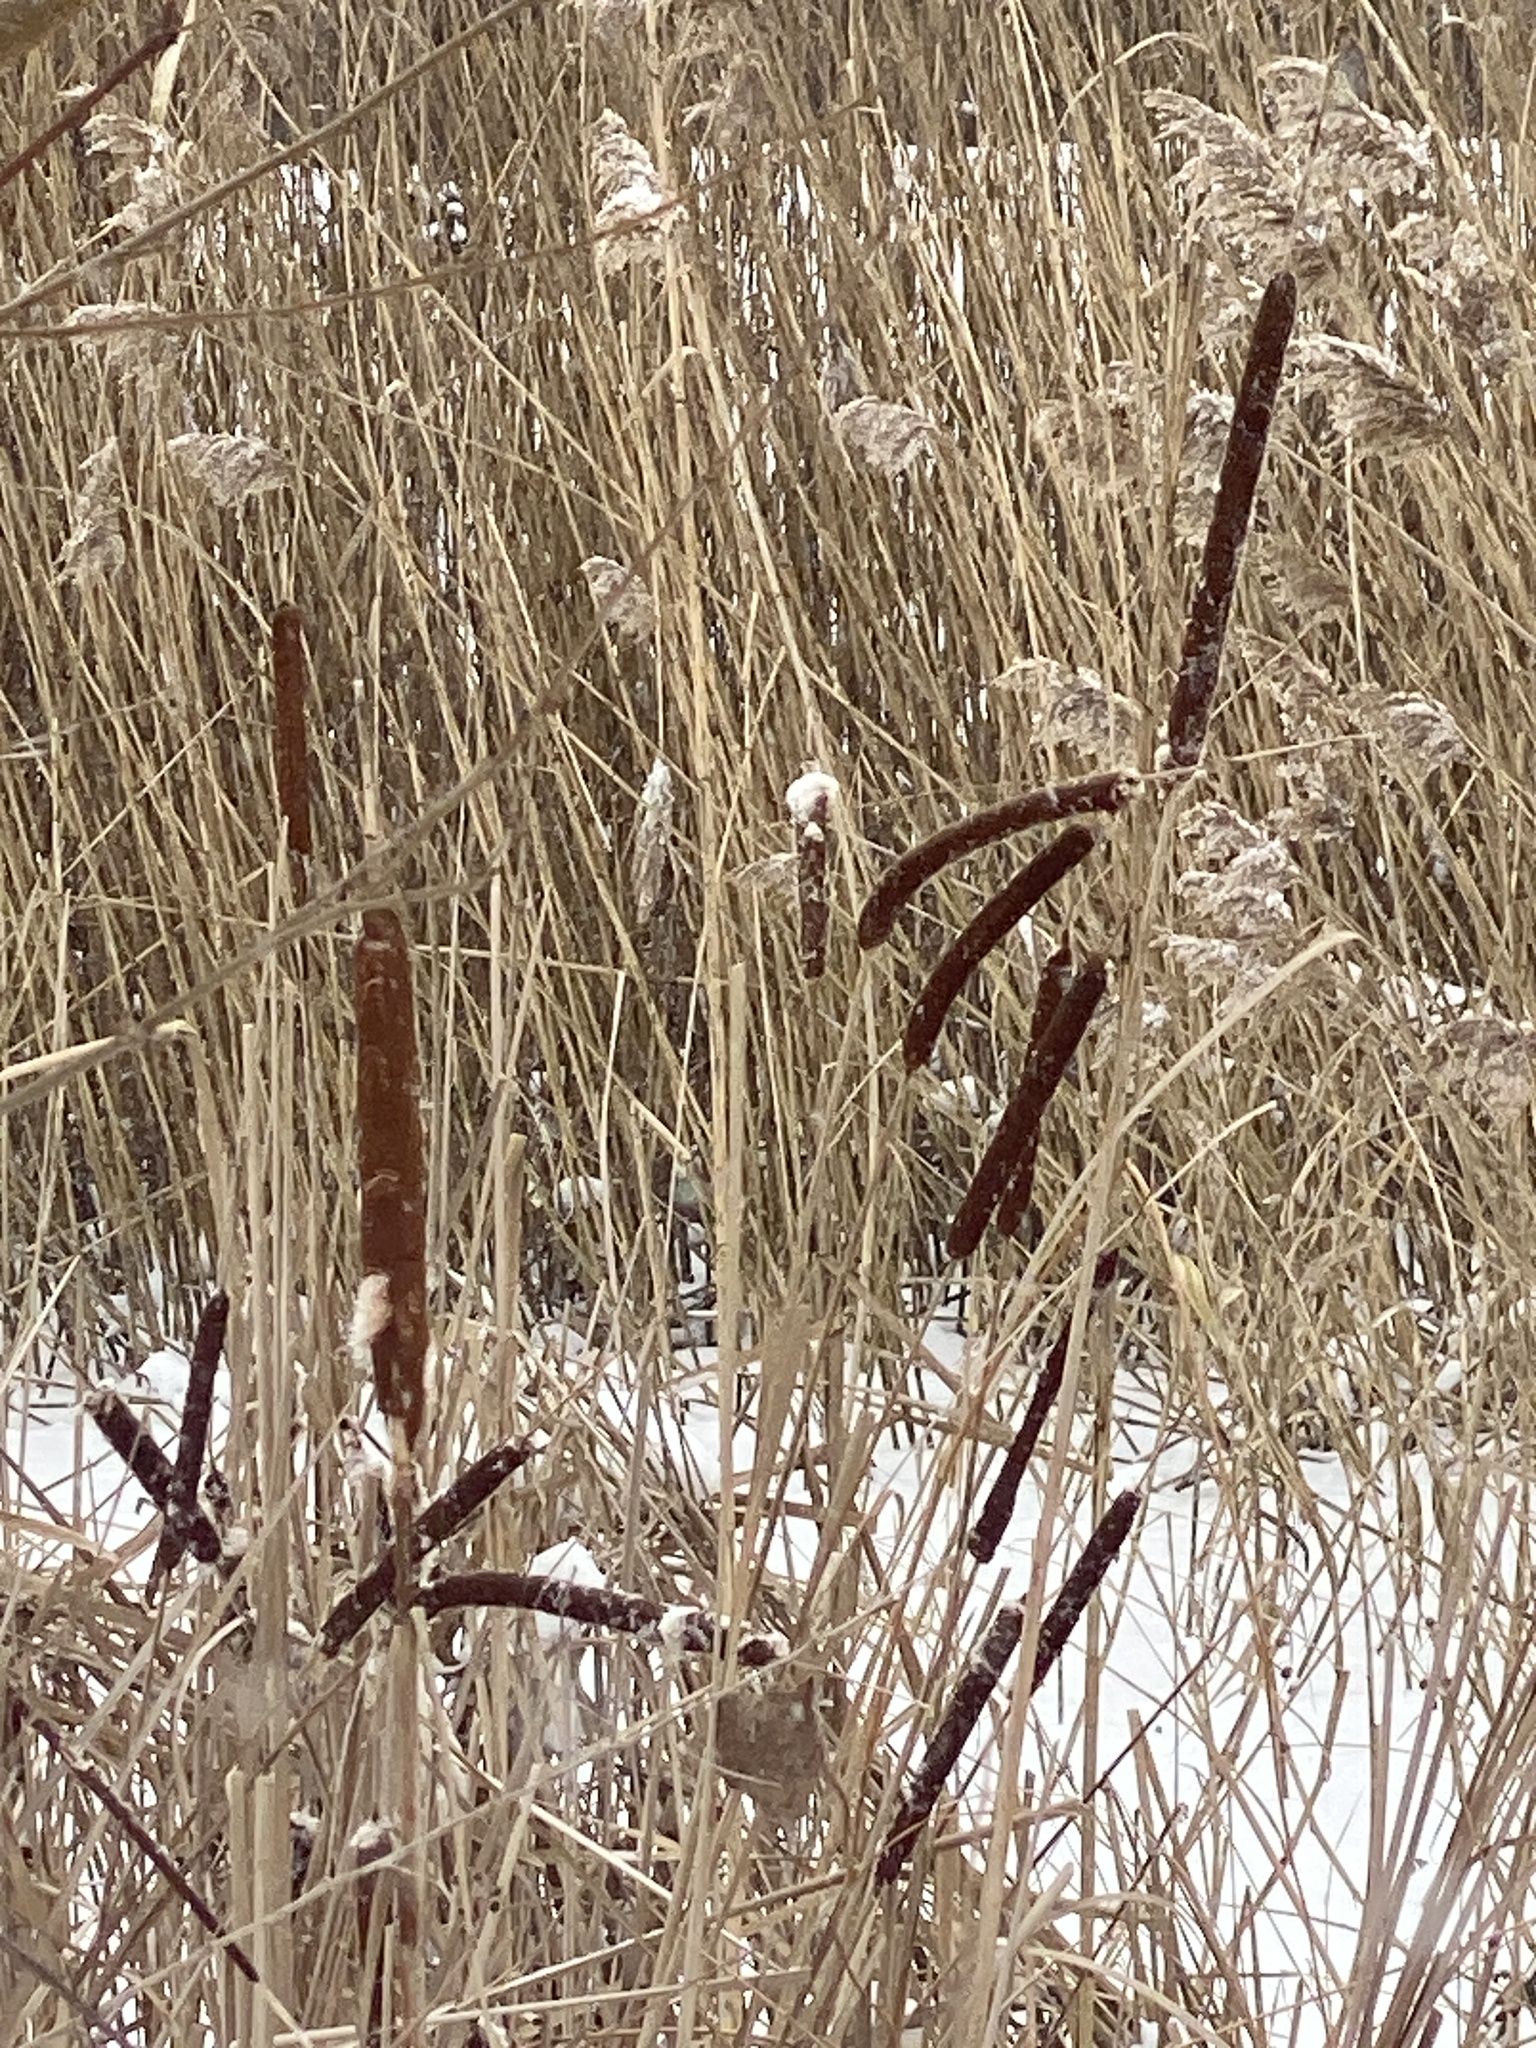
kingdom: Plantae
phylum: Tracheophyta
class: Liliopsida
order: Poales
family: Typhaceae
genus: Typha
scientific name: Typha
